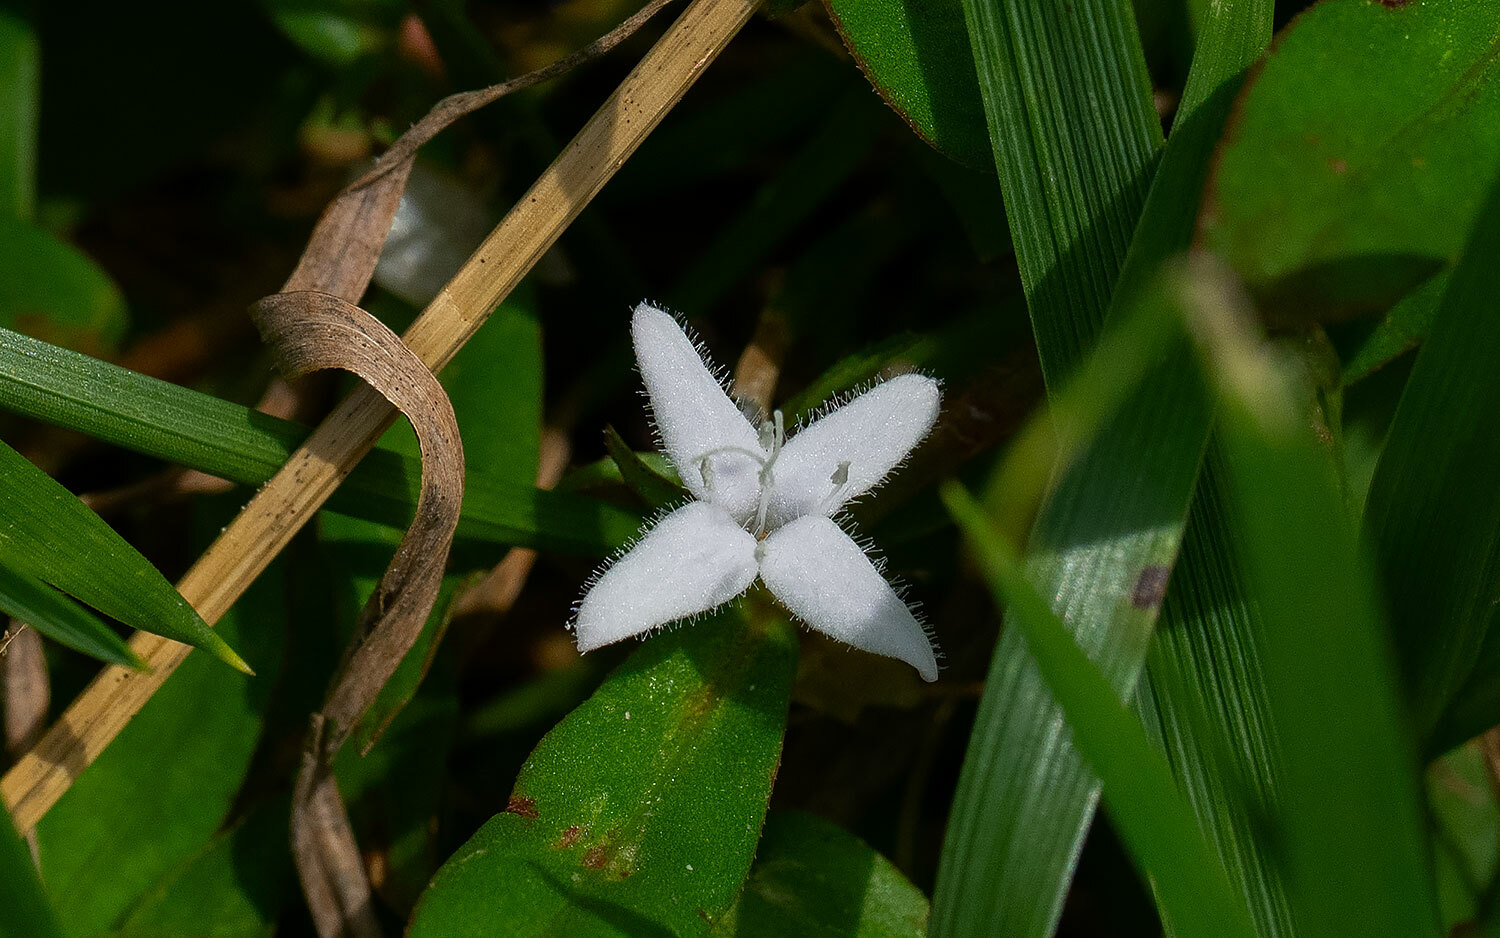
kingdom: Plantae
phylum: Tracheophyta
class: Magnoliopsida
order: Gentianales
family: Rubiaceae
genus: Diodia
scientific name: Diodia virginiana
